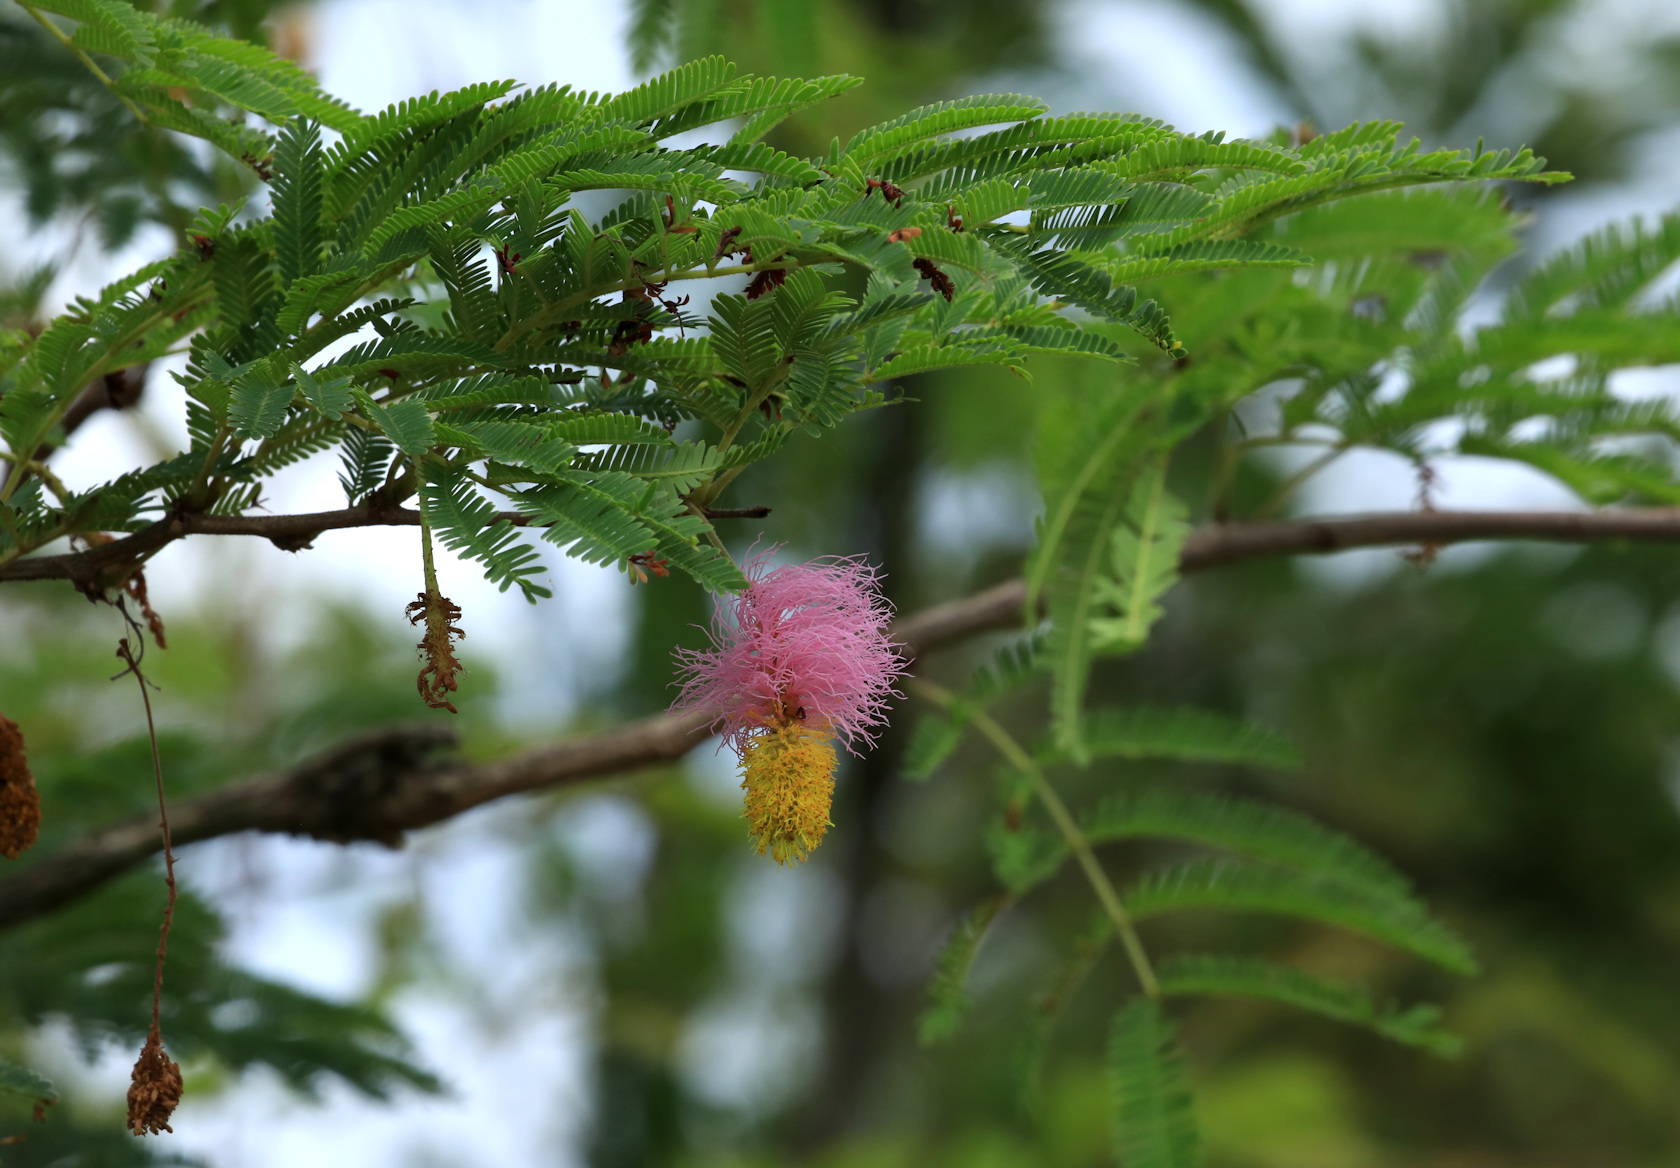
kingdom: Plantae
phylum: Tracheophyta
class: Magnoliopsida
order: Fabales
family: Fabaceae
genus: Dichrostachys
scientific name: Dichrostachys cinerea
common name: Sicklebush
